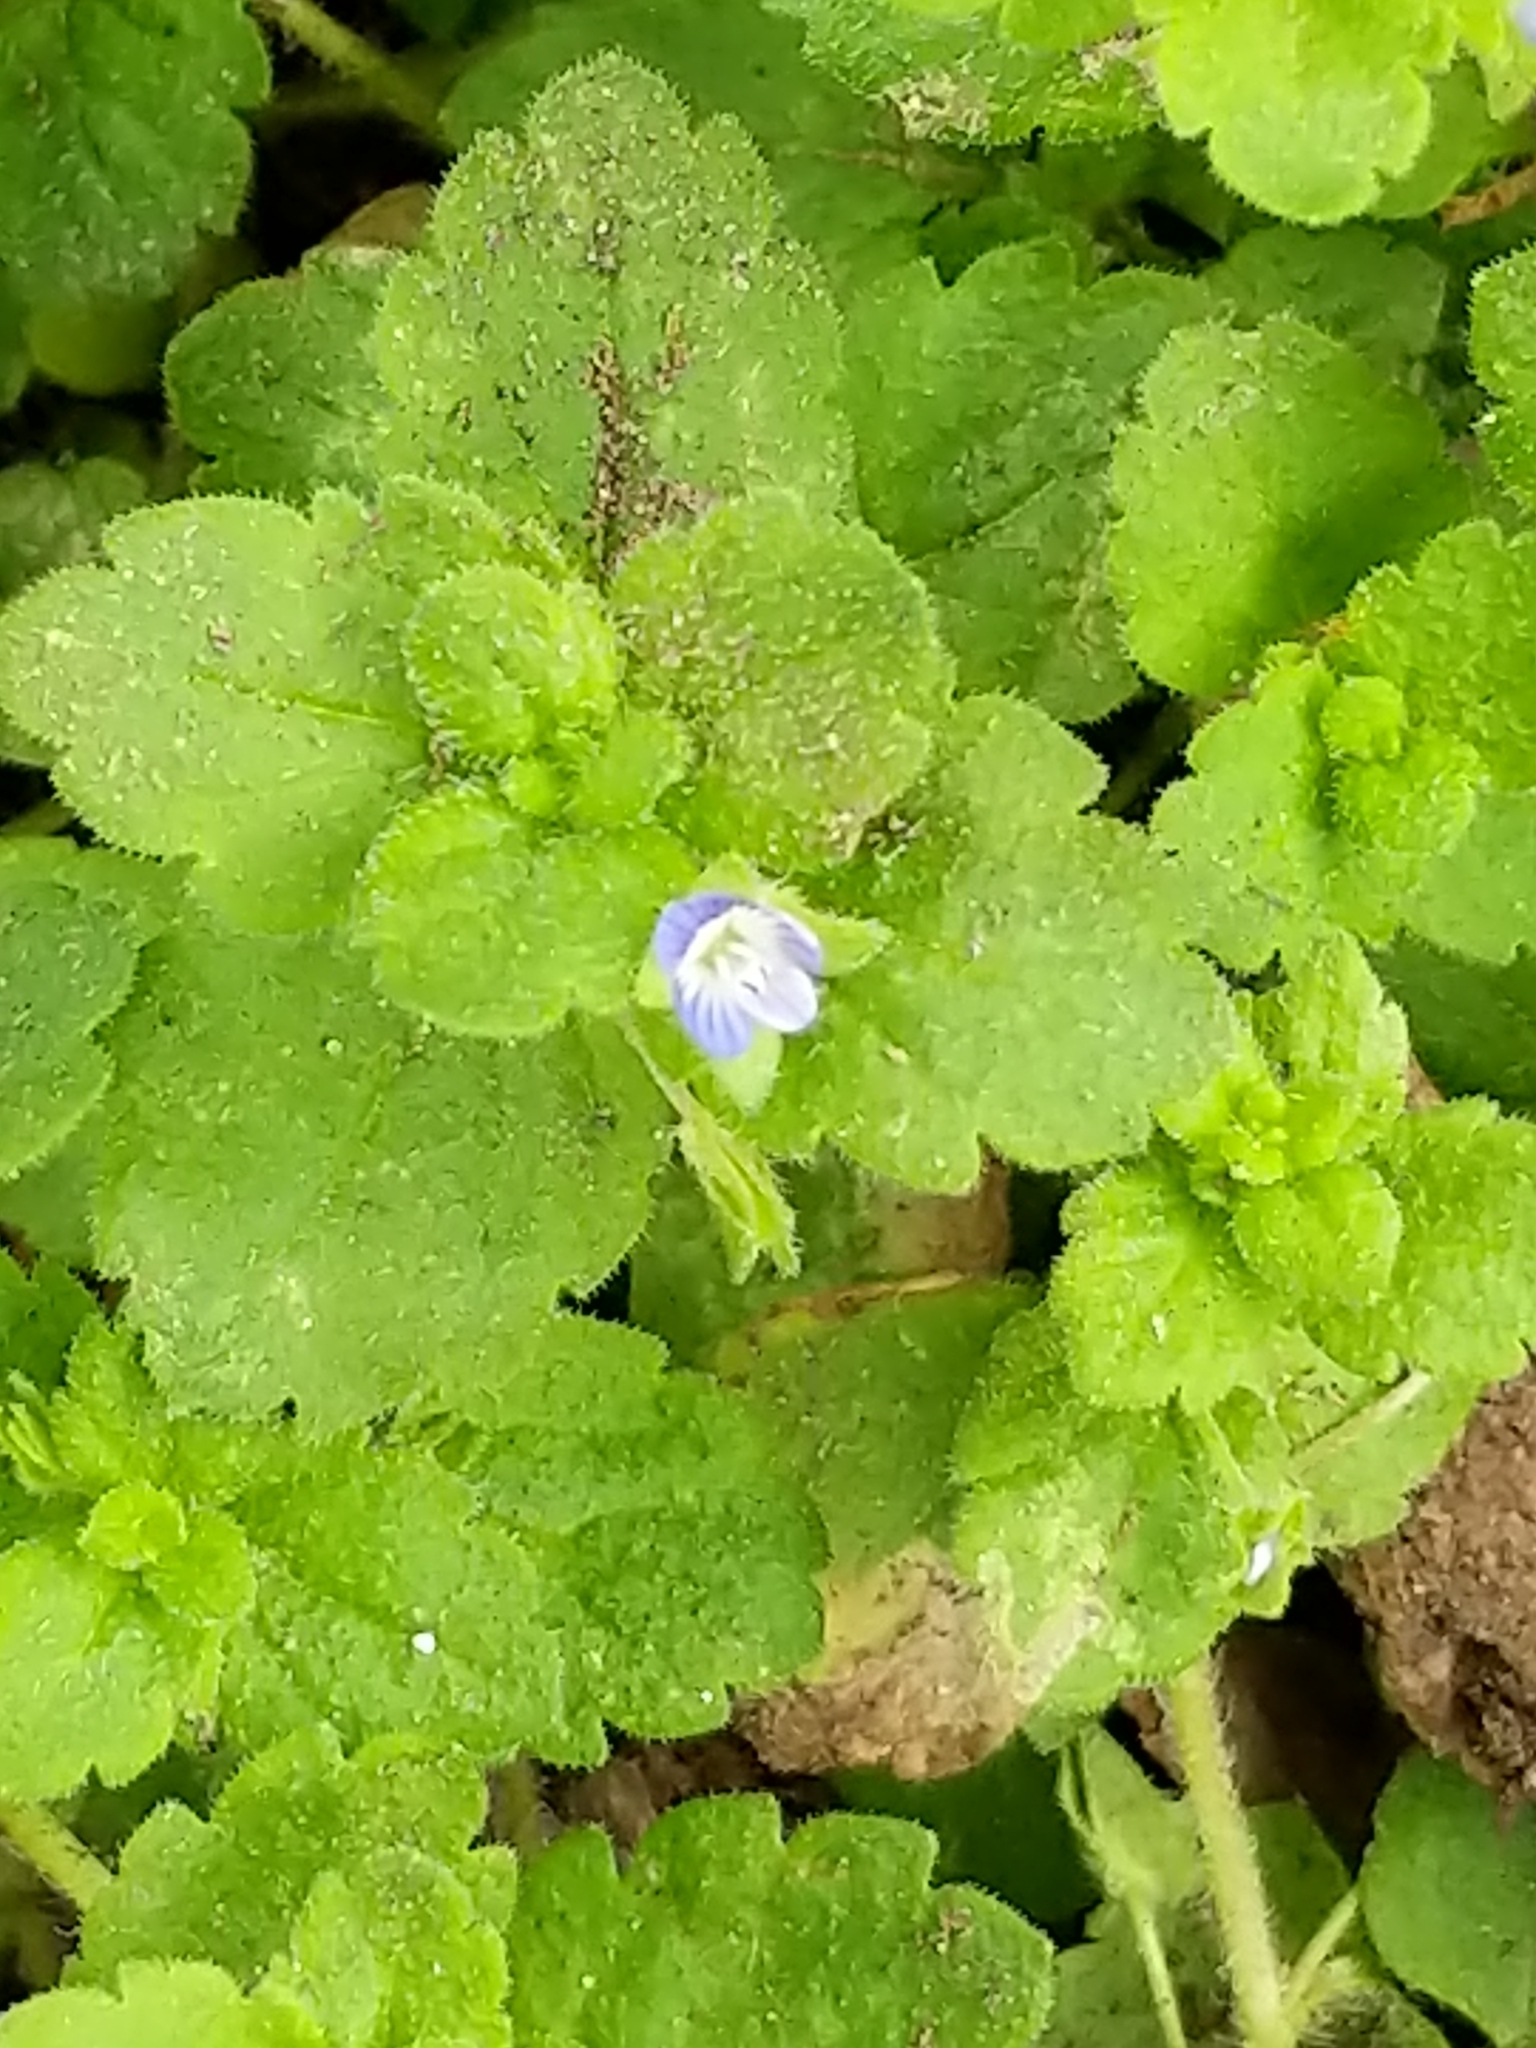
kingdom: Plantae
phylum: Tracheophyta
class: Magnoliopsida
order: Lamiales
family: Plantaginaceae
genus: Veronica
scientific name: Veronica persica
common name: Common field-speedwell
